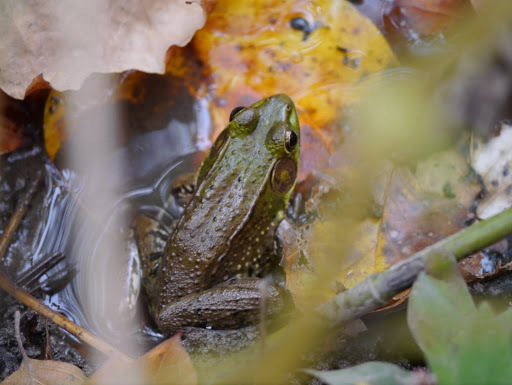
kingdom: Animalia
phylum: Chordata
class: Amphibia
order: Anura
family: Ranidae
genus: Lithobates
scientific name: Lithobates clamitans
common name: Green frog
